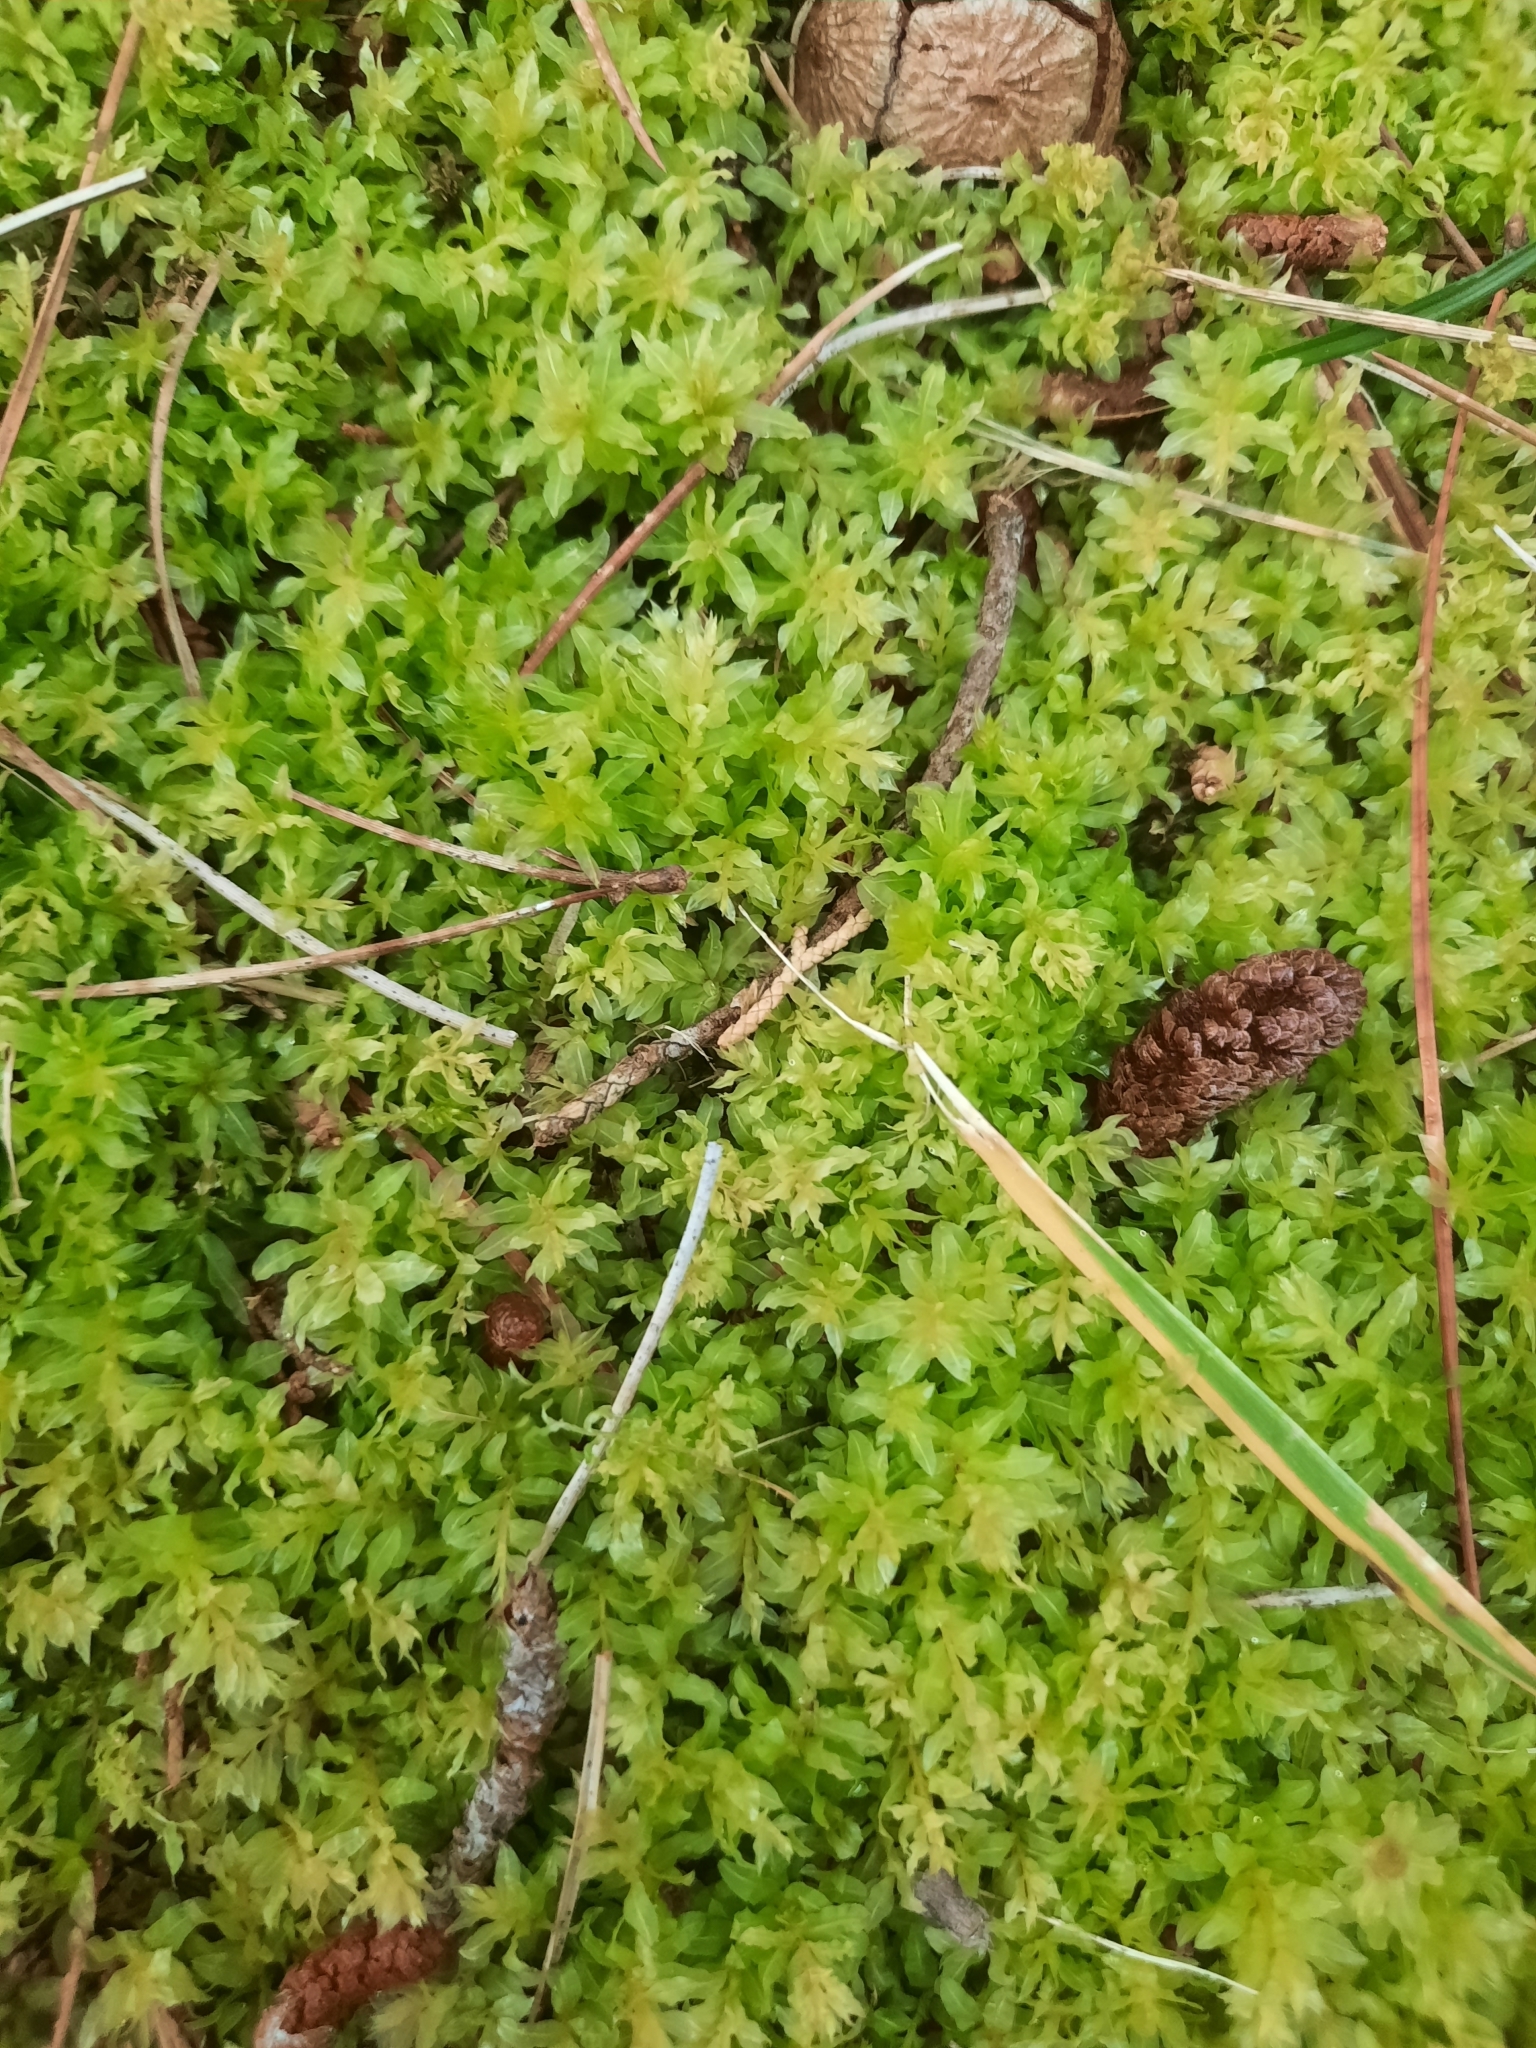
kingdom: Plantae
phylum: Bryophyta
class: Bryopsida
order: Bryales
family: Mniaceae
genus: Plagiomnium
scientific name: Plagiomnium undulatum
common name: Hart's-tongue thyme-moss
